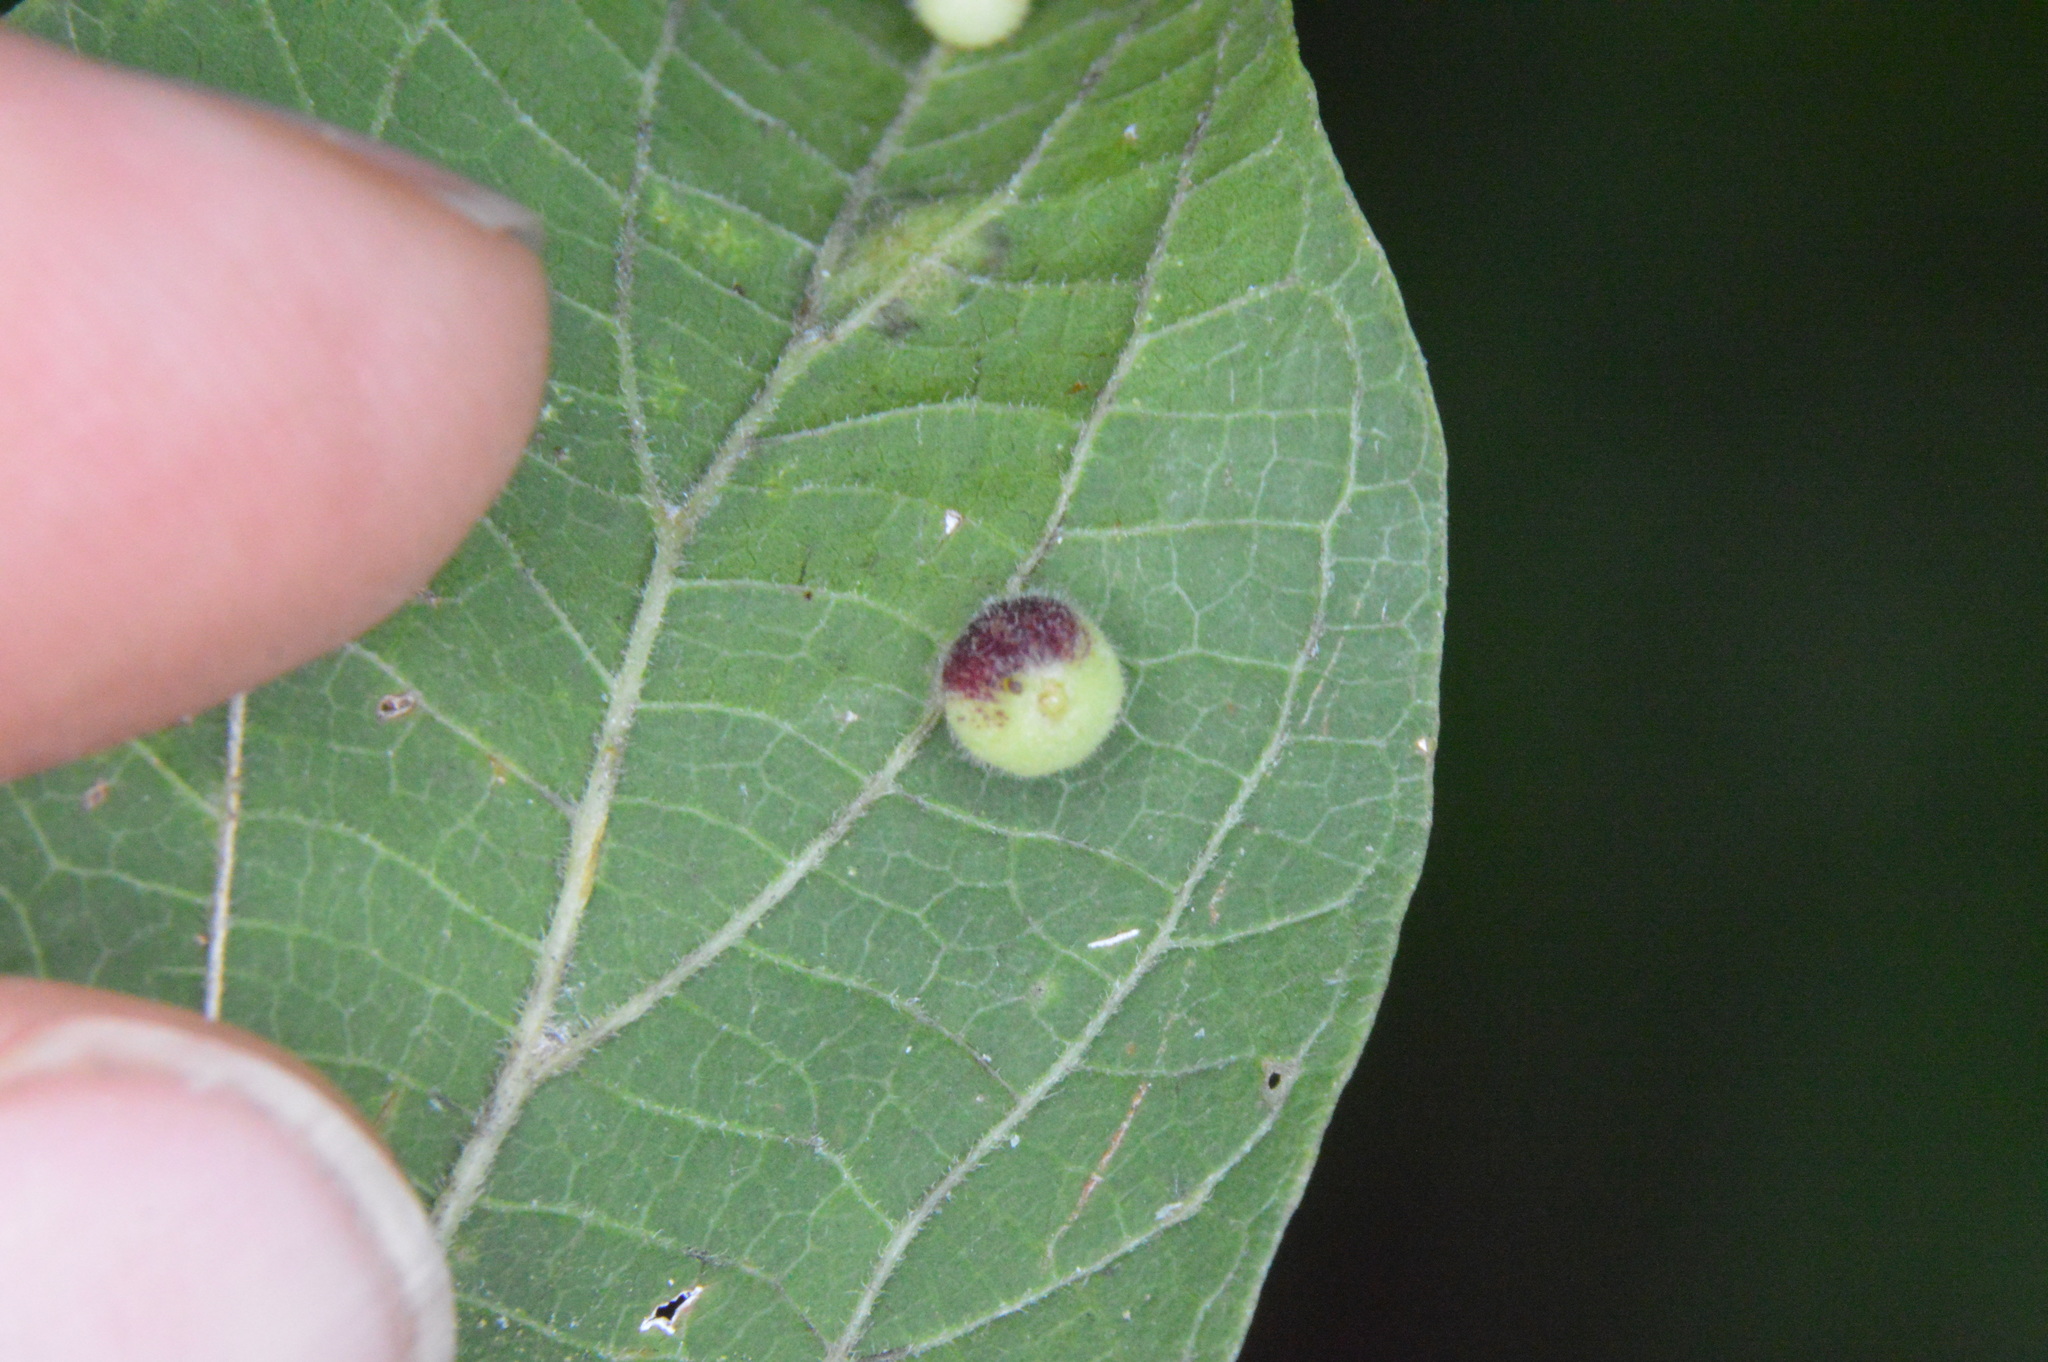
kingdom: Animalia
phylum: Arthropoda
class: Insecta
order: Diptera
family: Cecidomyiidae
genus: Celticecis
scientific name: Celticecis globosa
